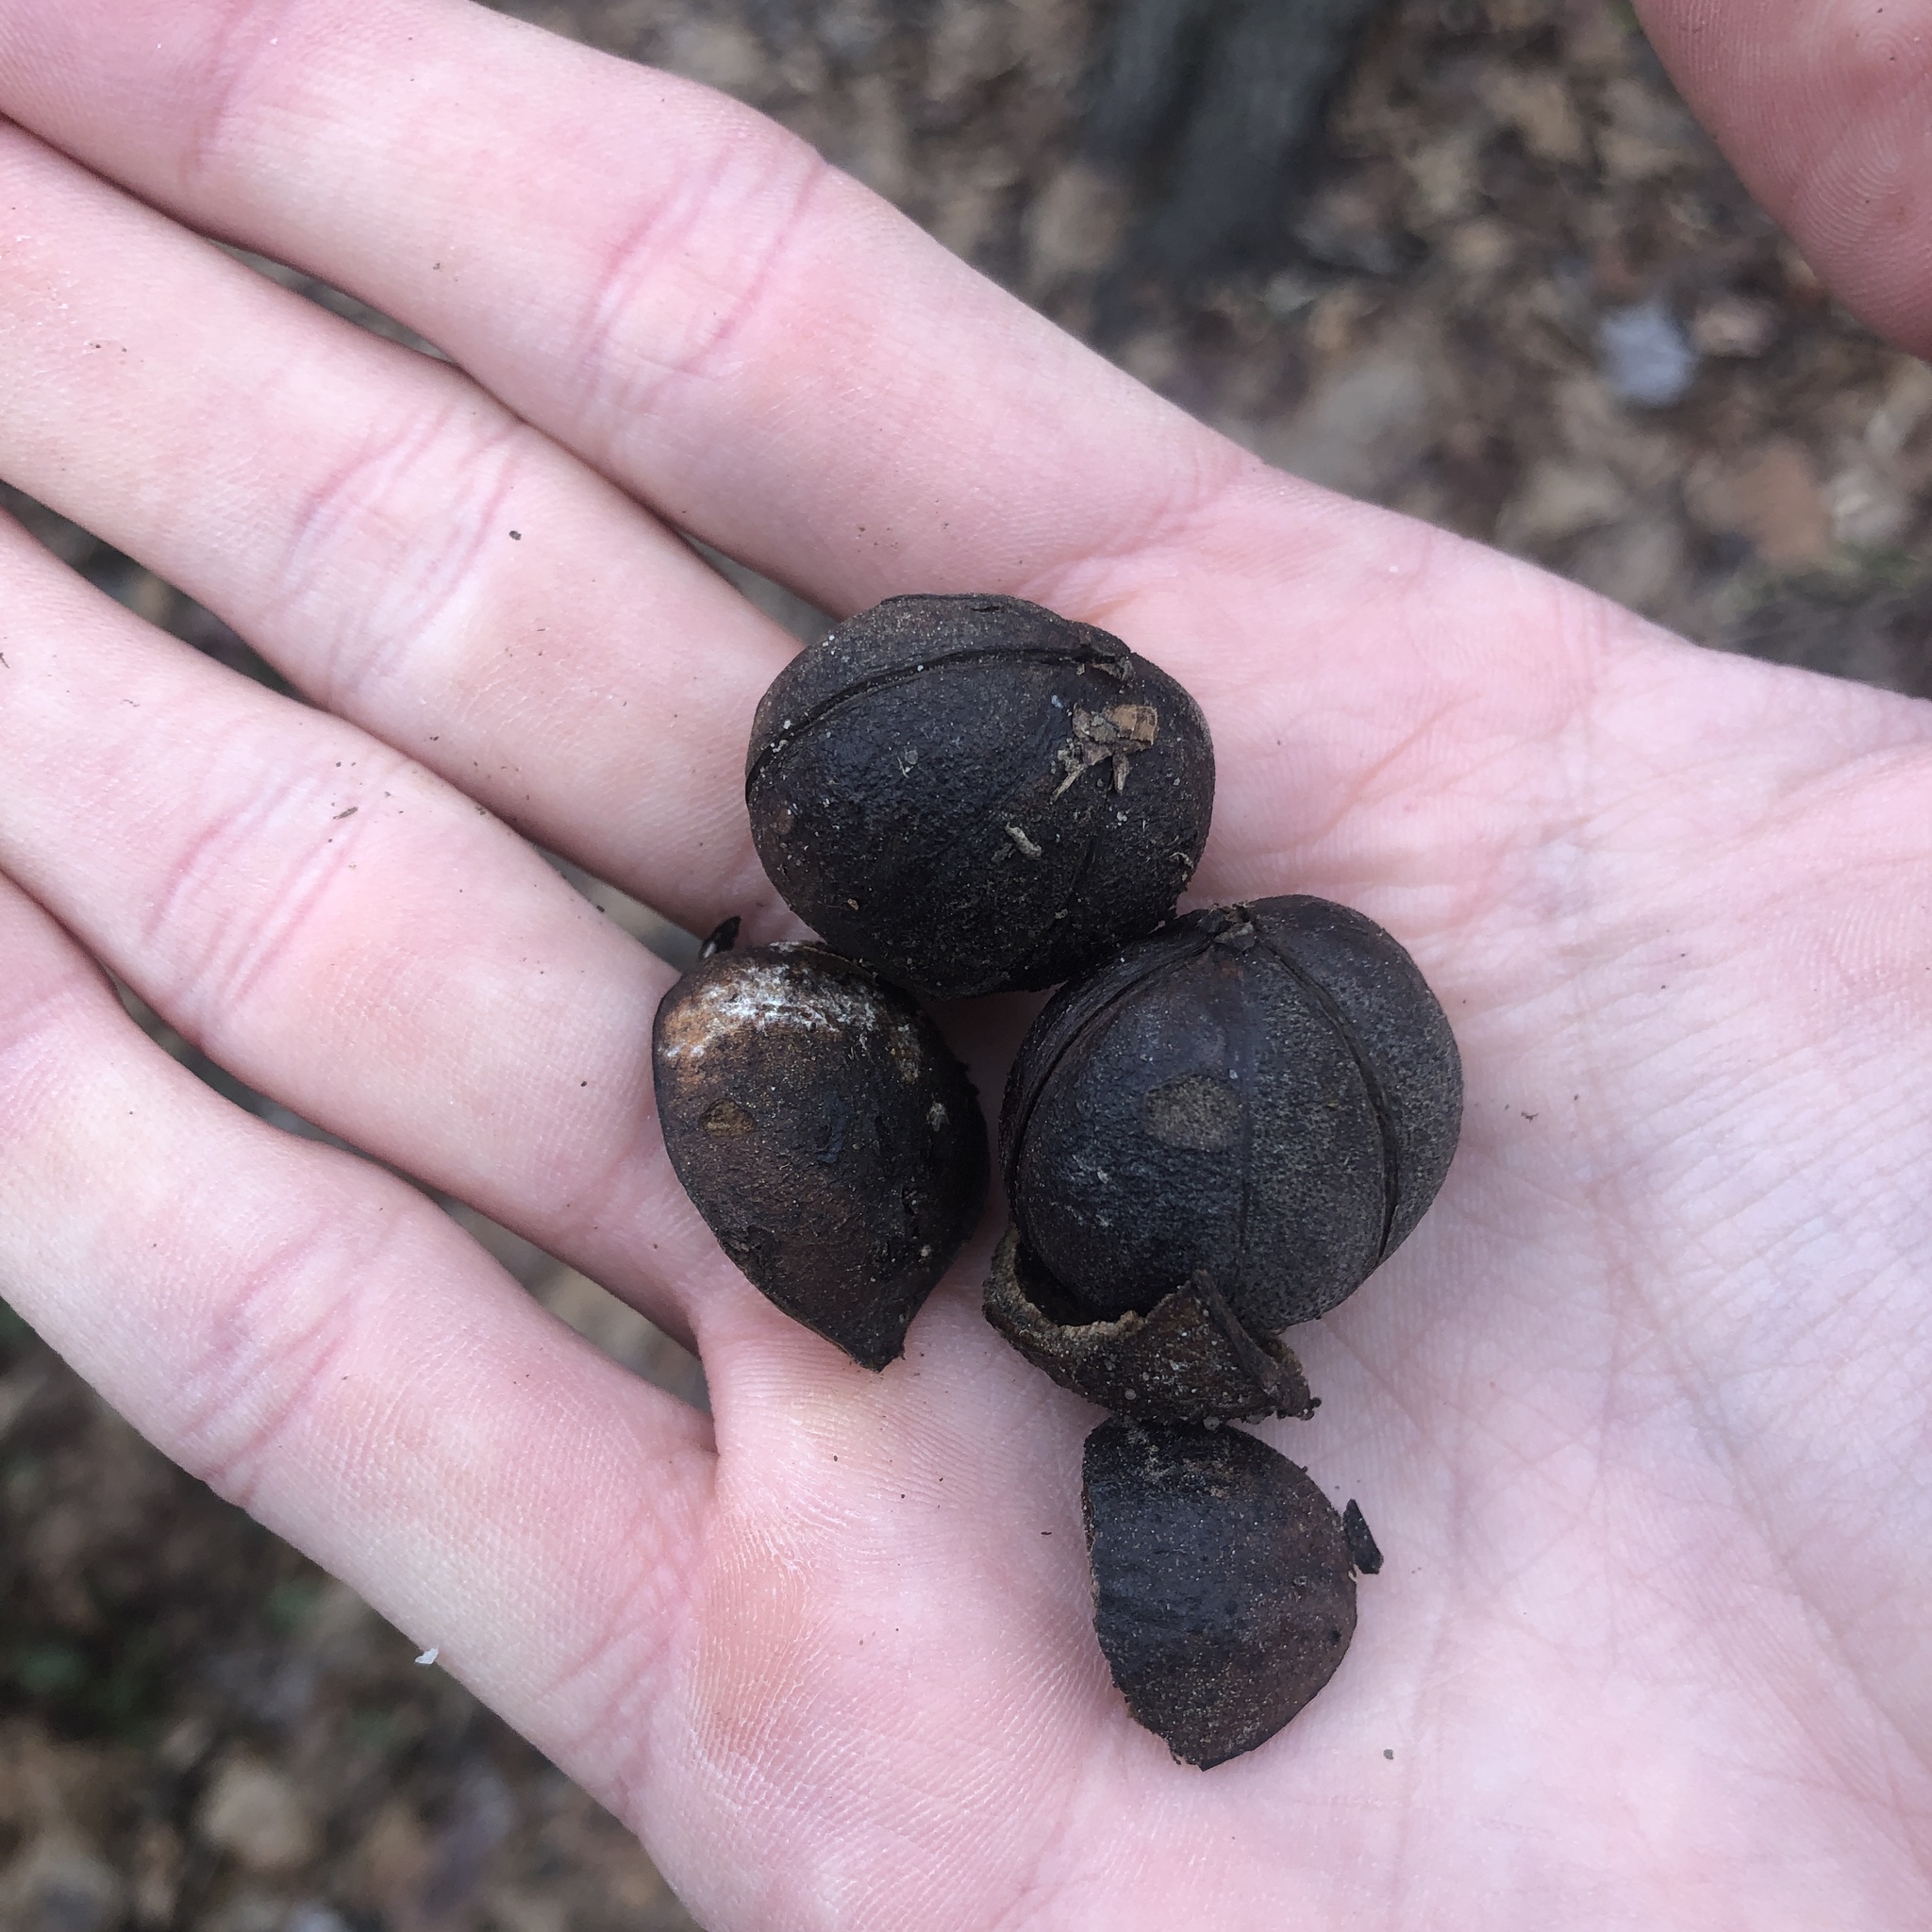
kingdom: Plantae
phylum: Tracheophyta
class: Magnoliopsida
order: Fagales
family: Juglandaceae
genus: Carya
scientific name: Carya glabra
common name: Pignut hickory
